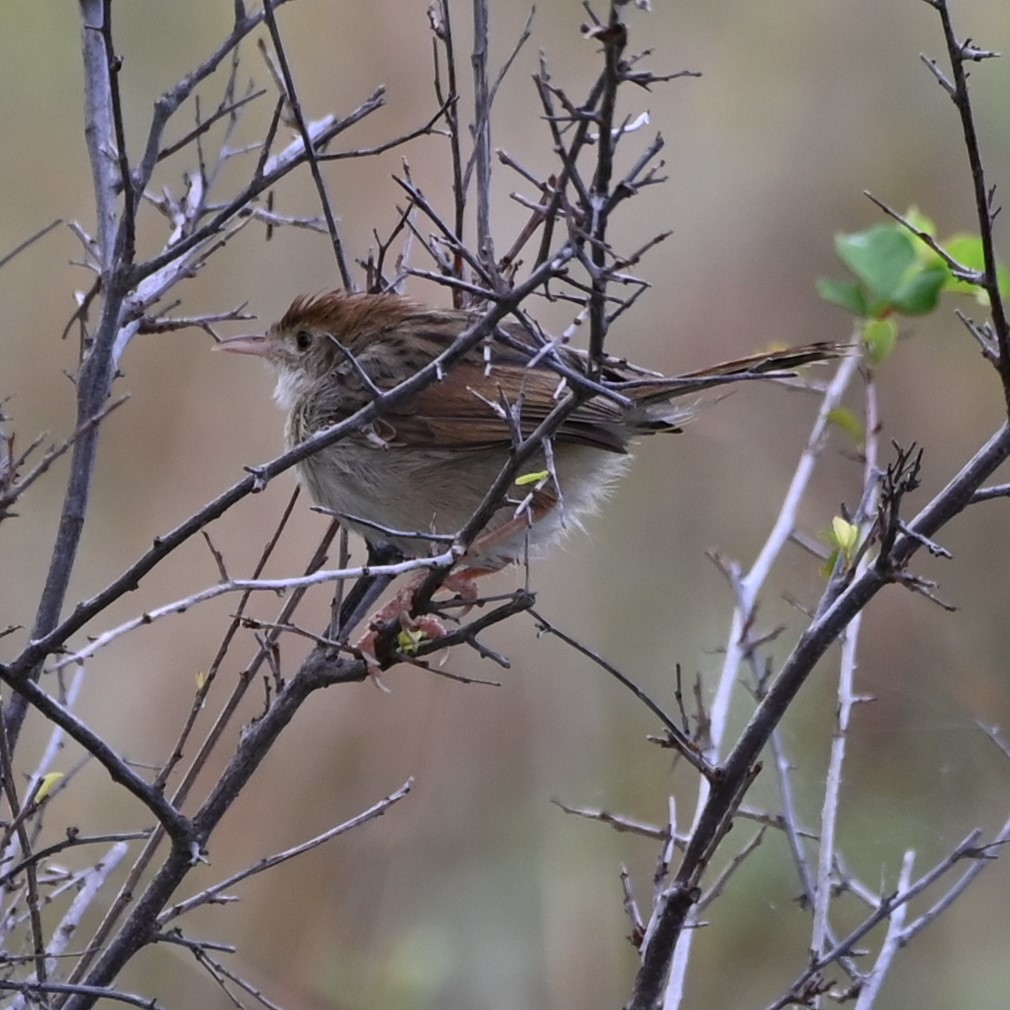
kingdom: Animalia
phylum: Chordata
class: Aves
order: Passeriformes
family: Cisticolidae
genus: Cisticola
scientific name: Cisticola fulvicapilla
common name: Neddicky
